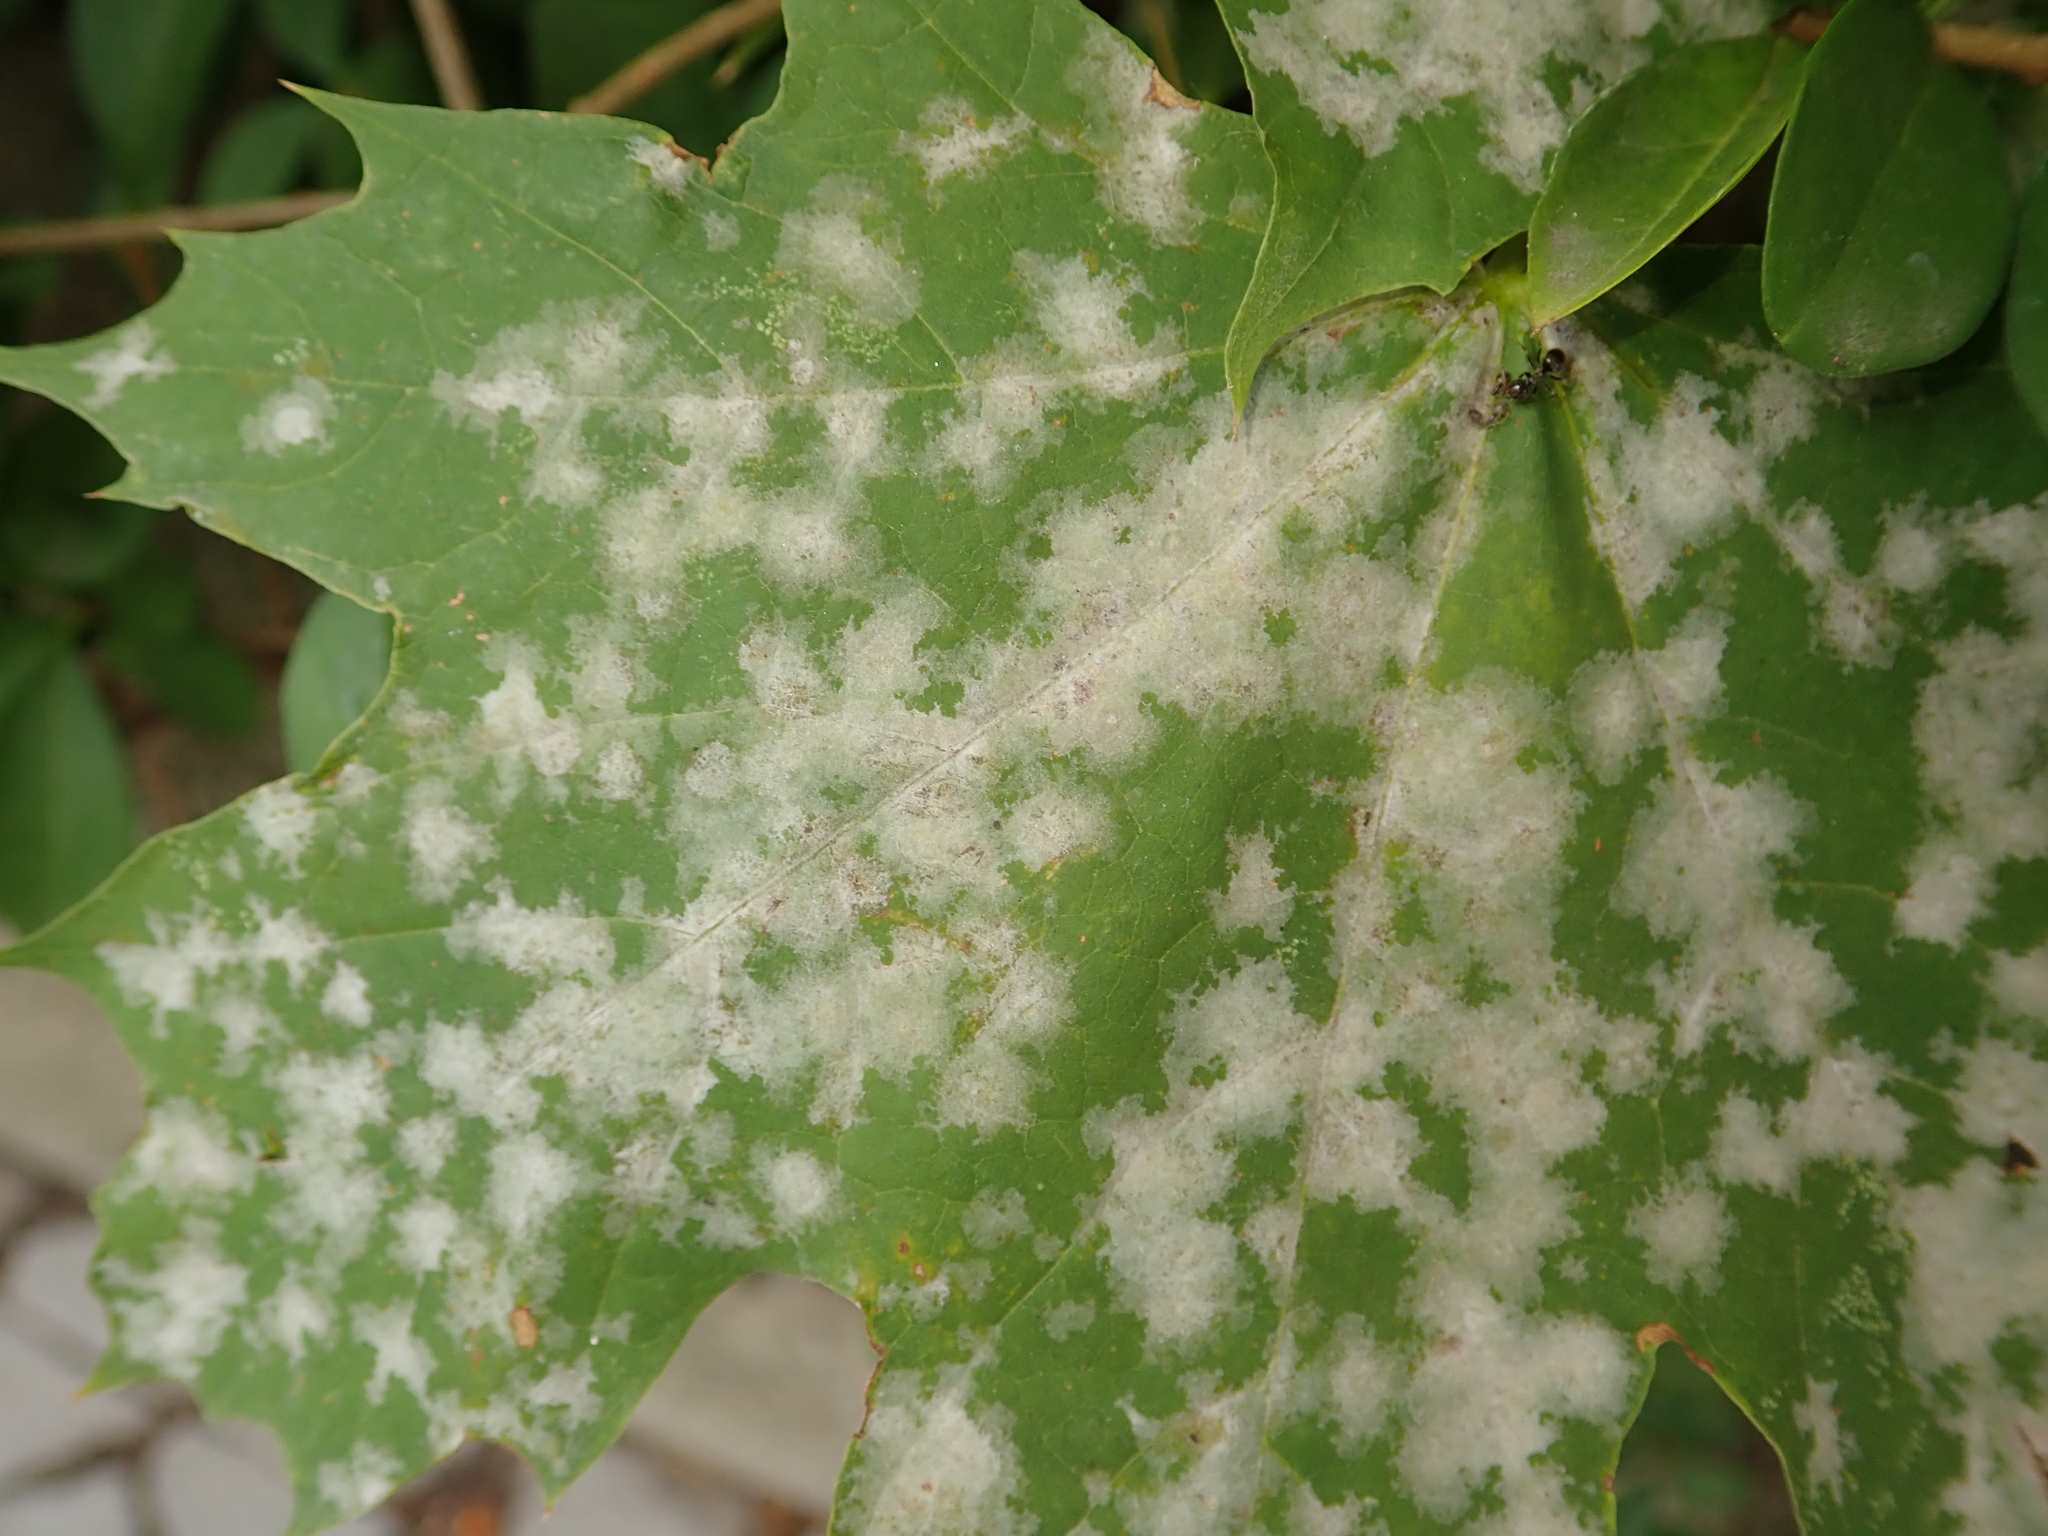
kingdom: Fungi
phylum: Ascomycota
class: Leotiomycetes
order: Helotiales
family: Erysiphaceae
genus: Sawadaea
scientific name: Sawadaea tulasnei
